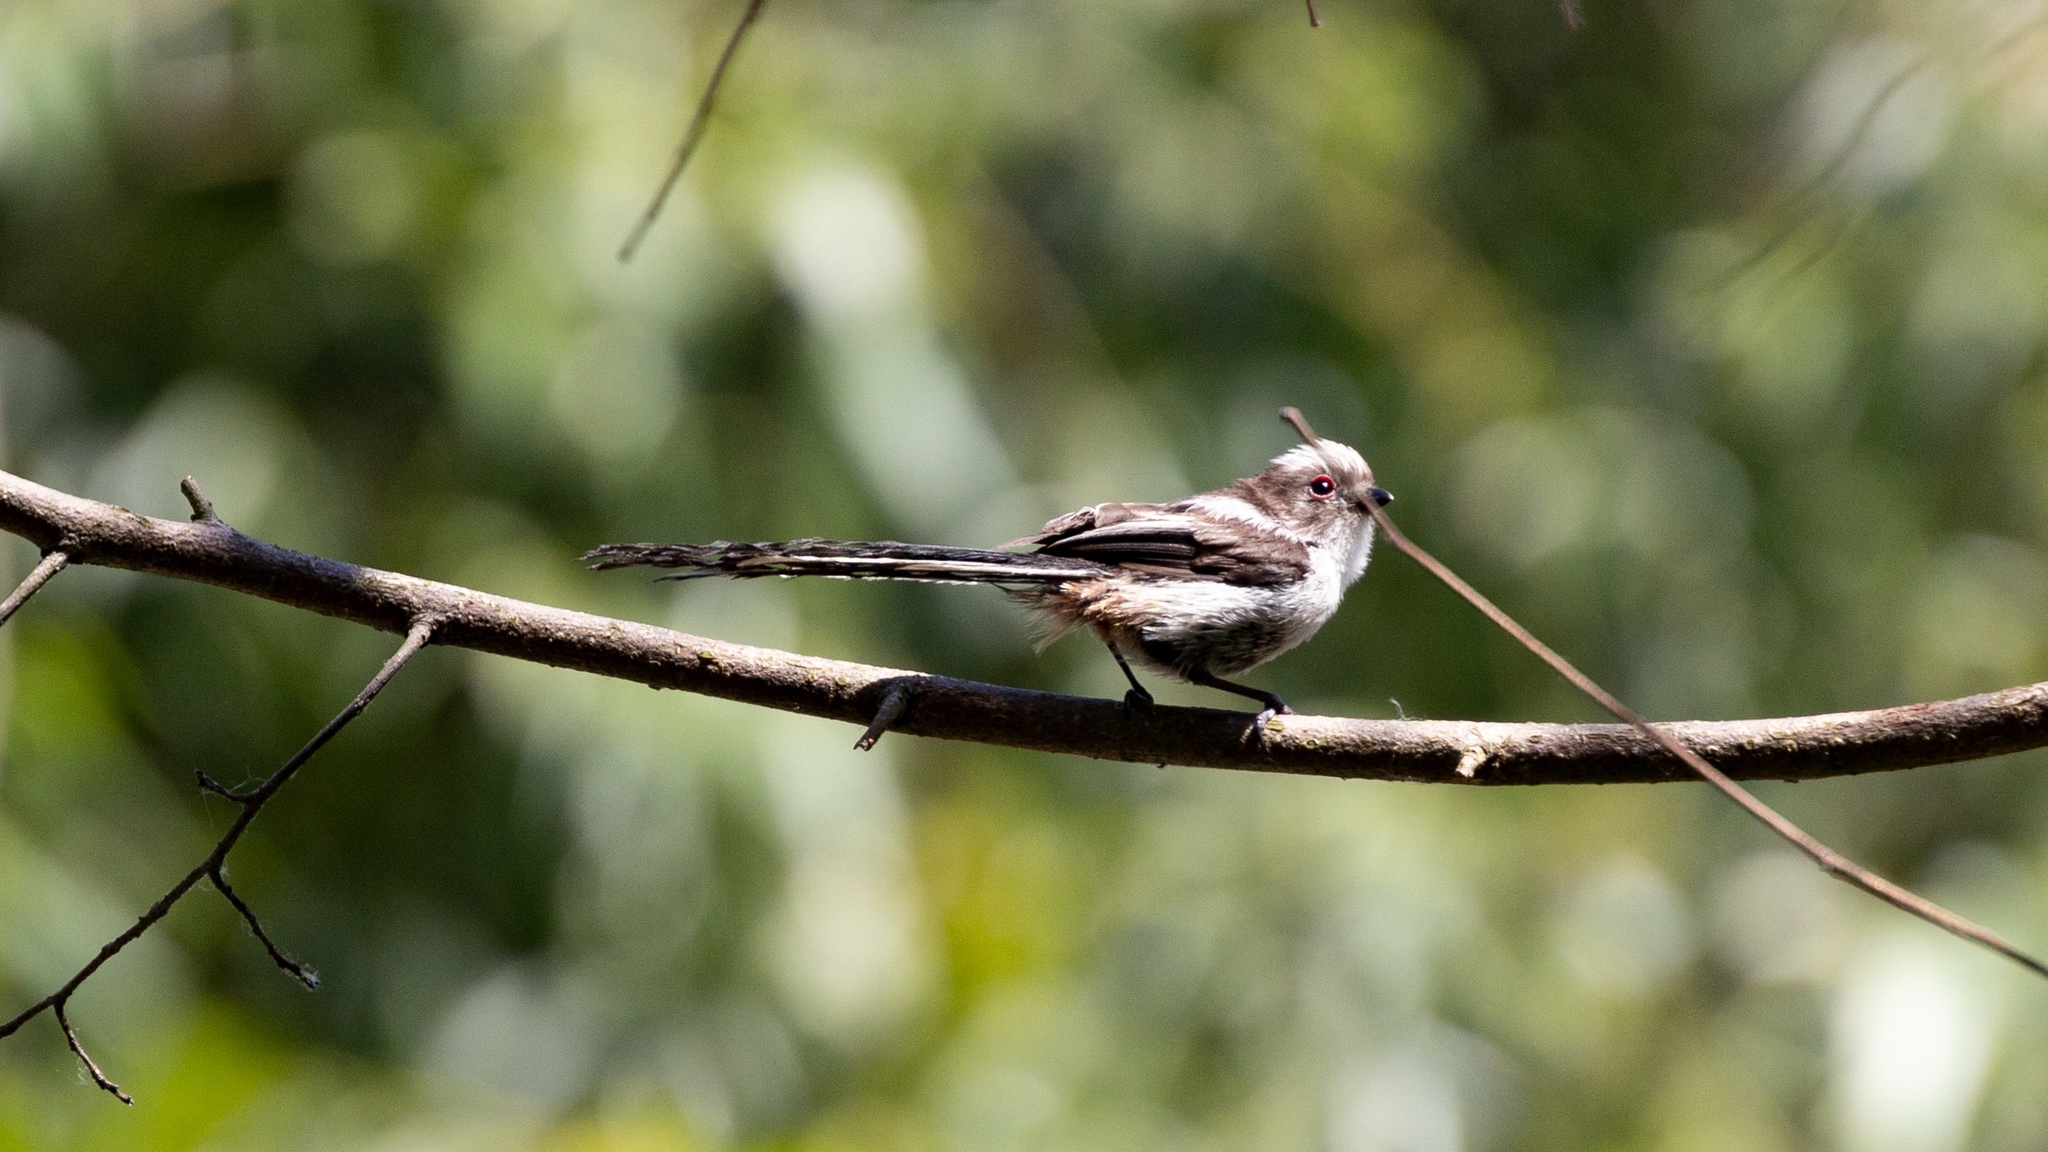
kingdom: Animalia
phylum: Chordata
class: Aves
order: Passeriformes
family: Aegithalidae
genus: Aegithalos
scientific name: Aegithalos caudatus
